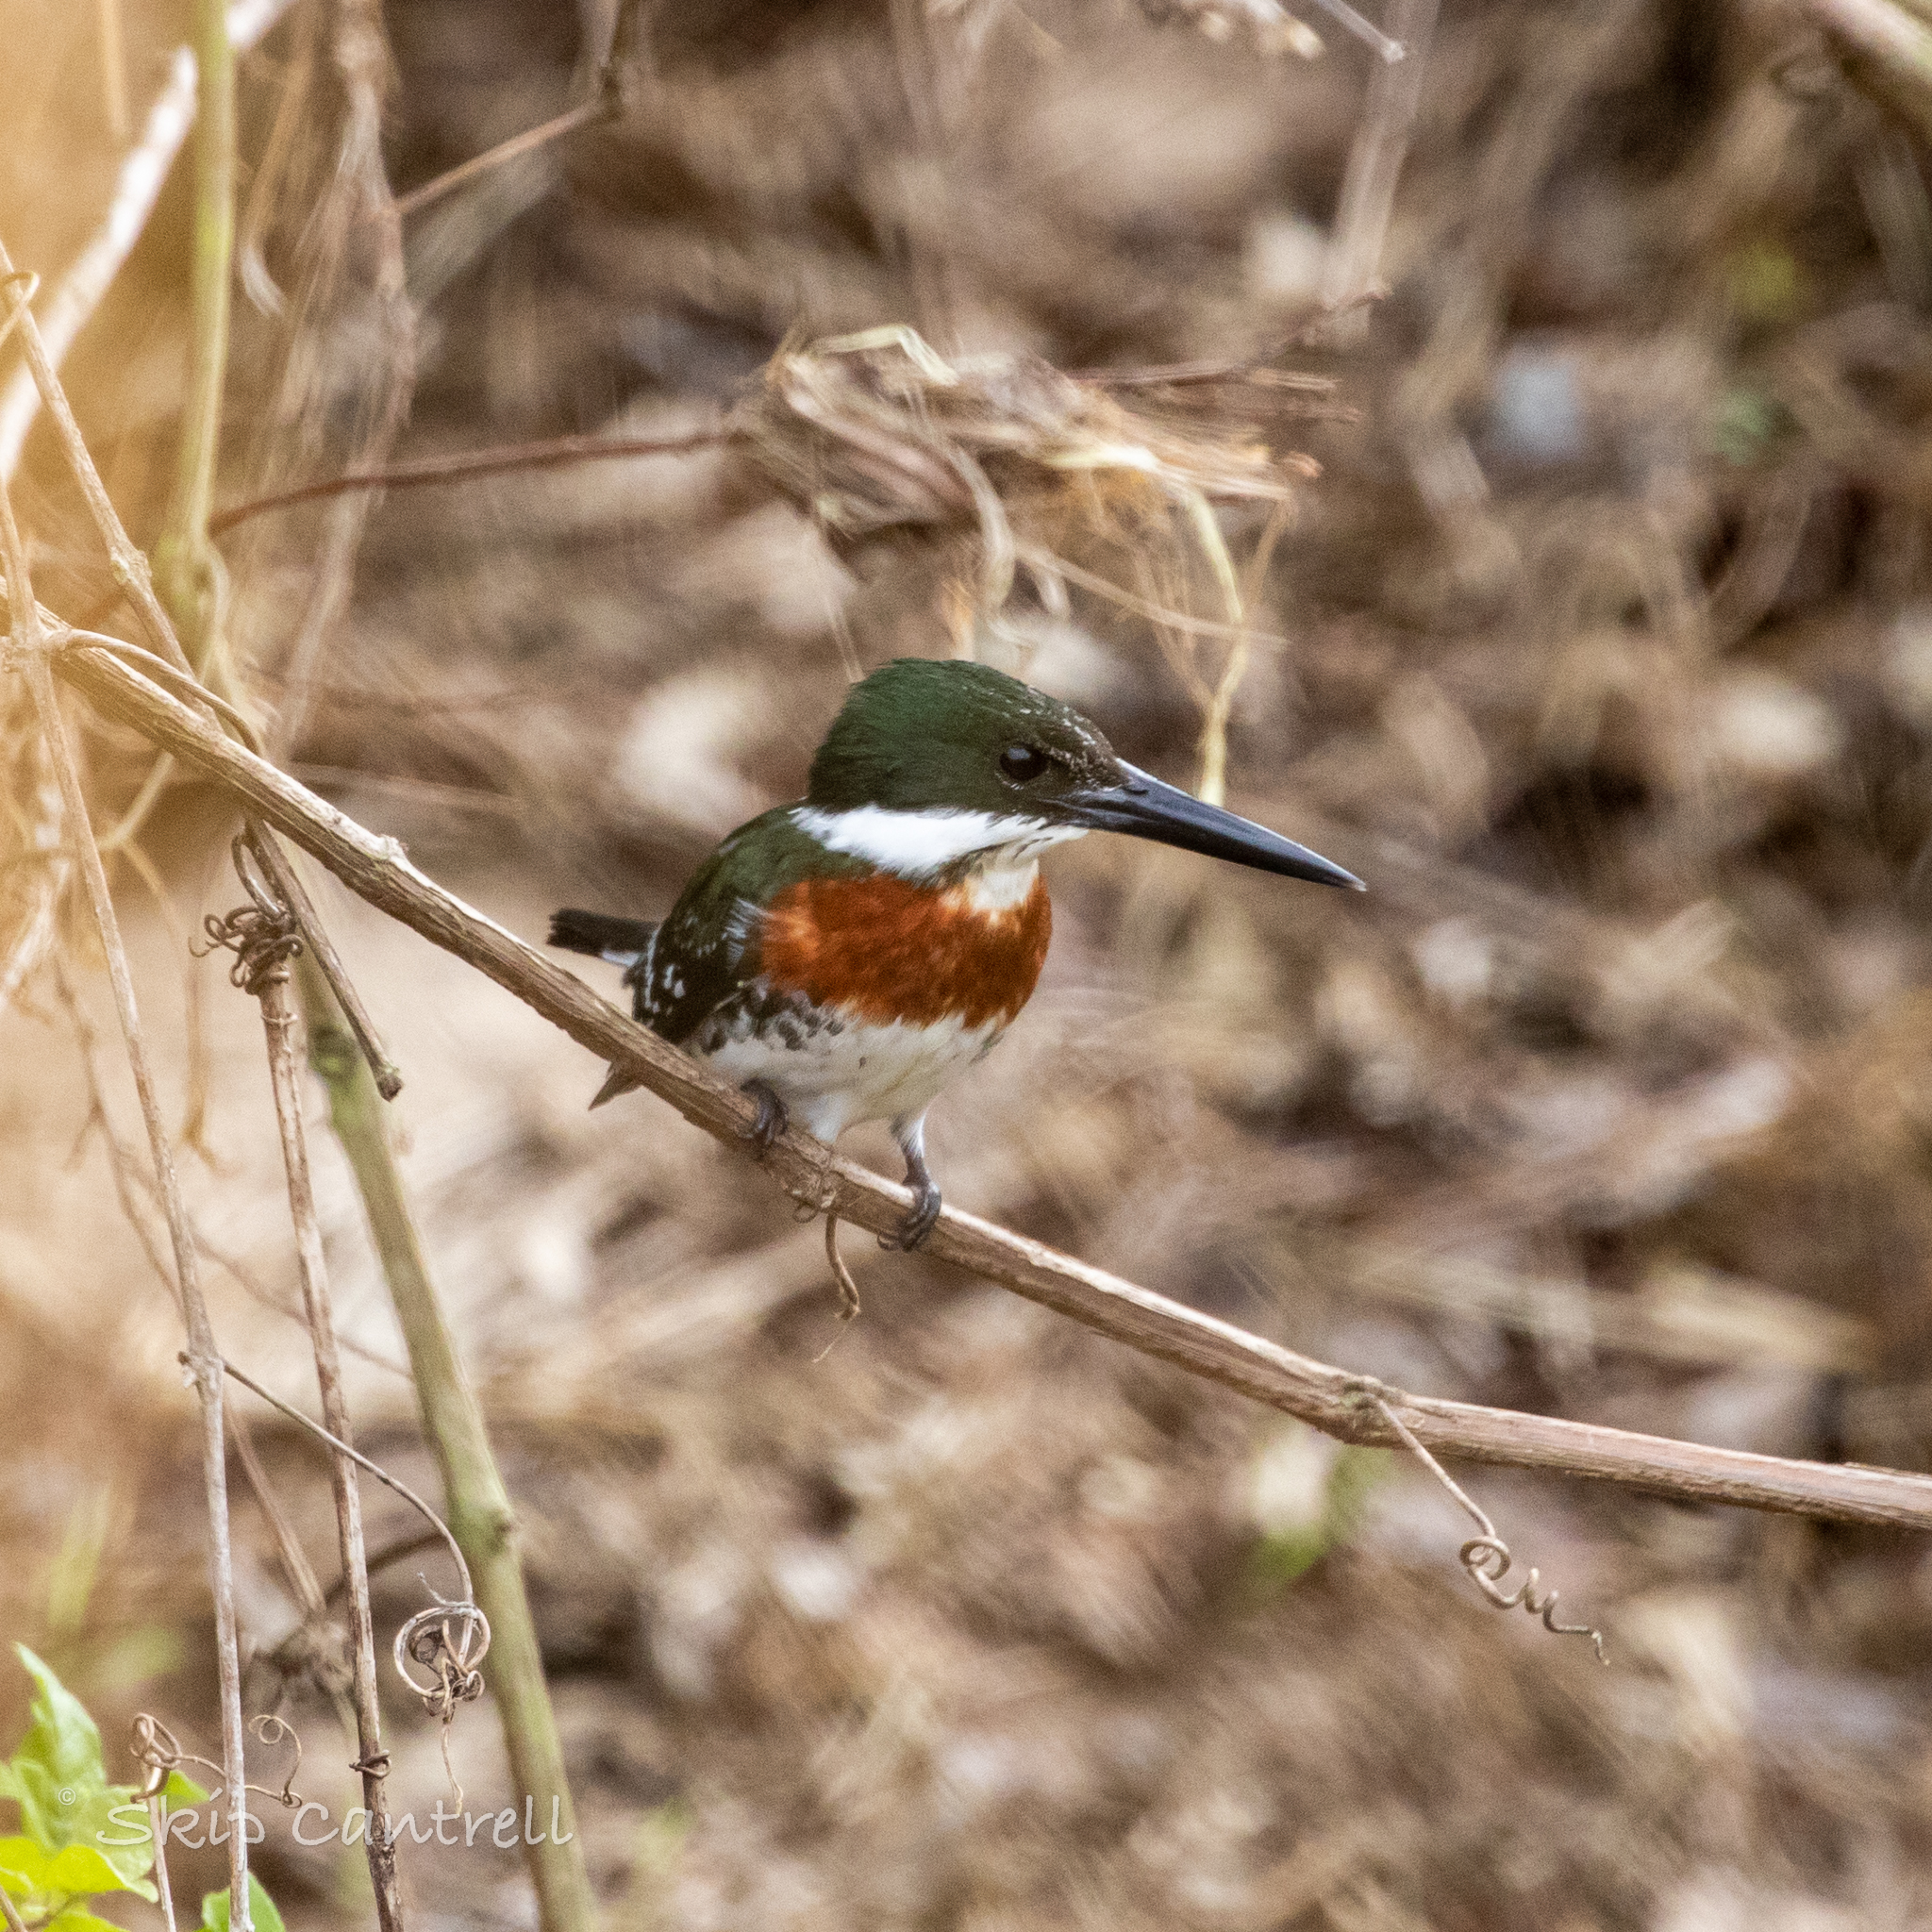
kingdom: Animalia
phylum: Chordata
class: Aves
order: Coraciiformes
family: Alcedinidae
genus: Chloroceryle
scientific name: Chloroceryle americana
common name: Green kingfisher
